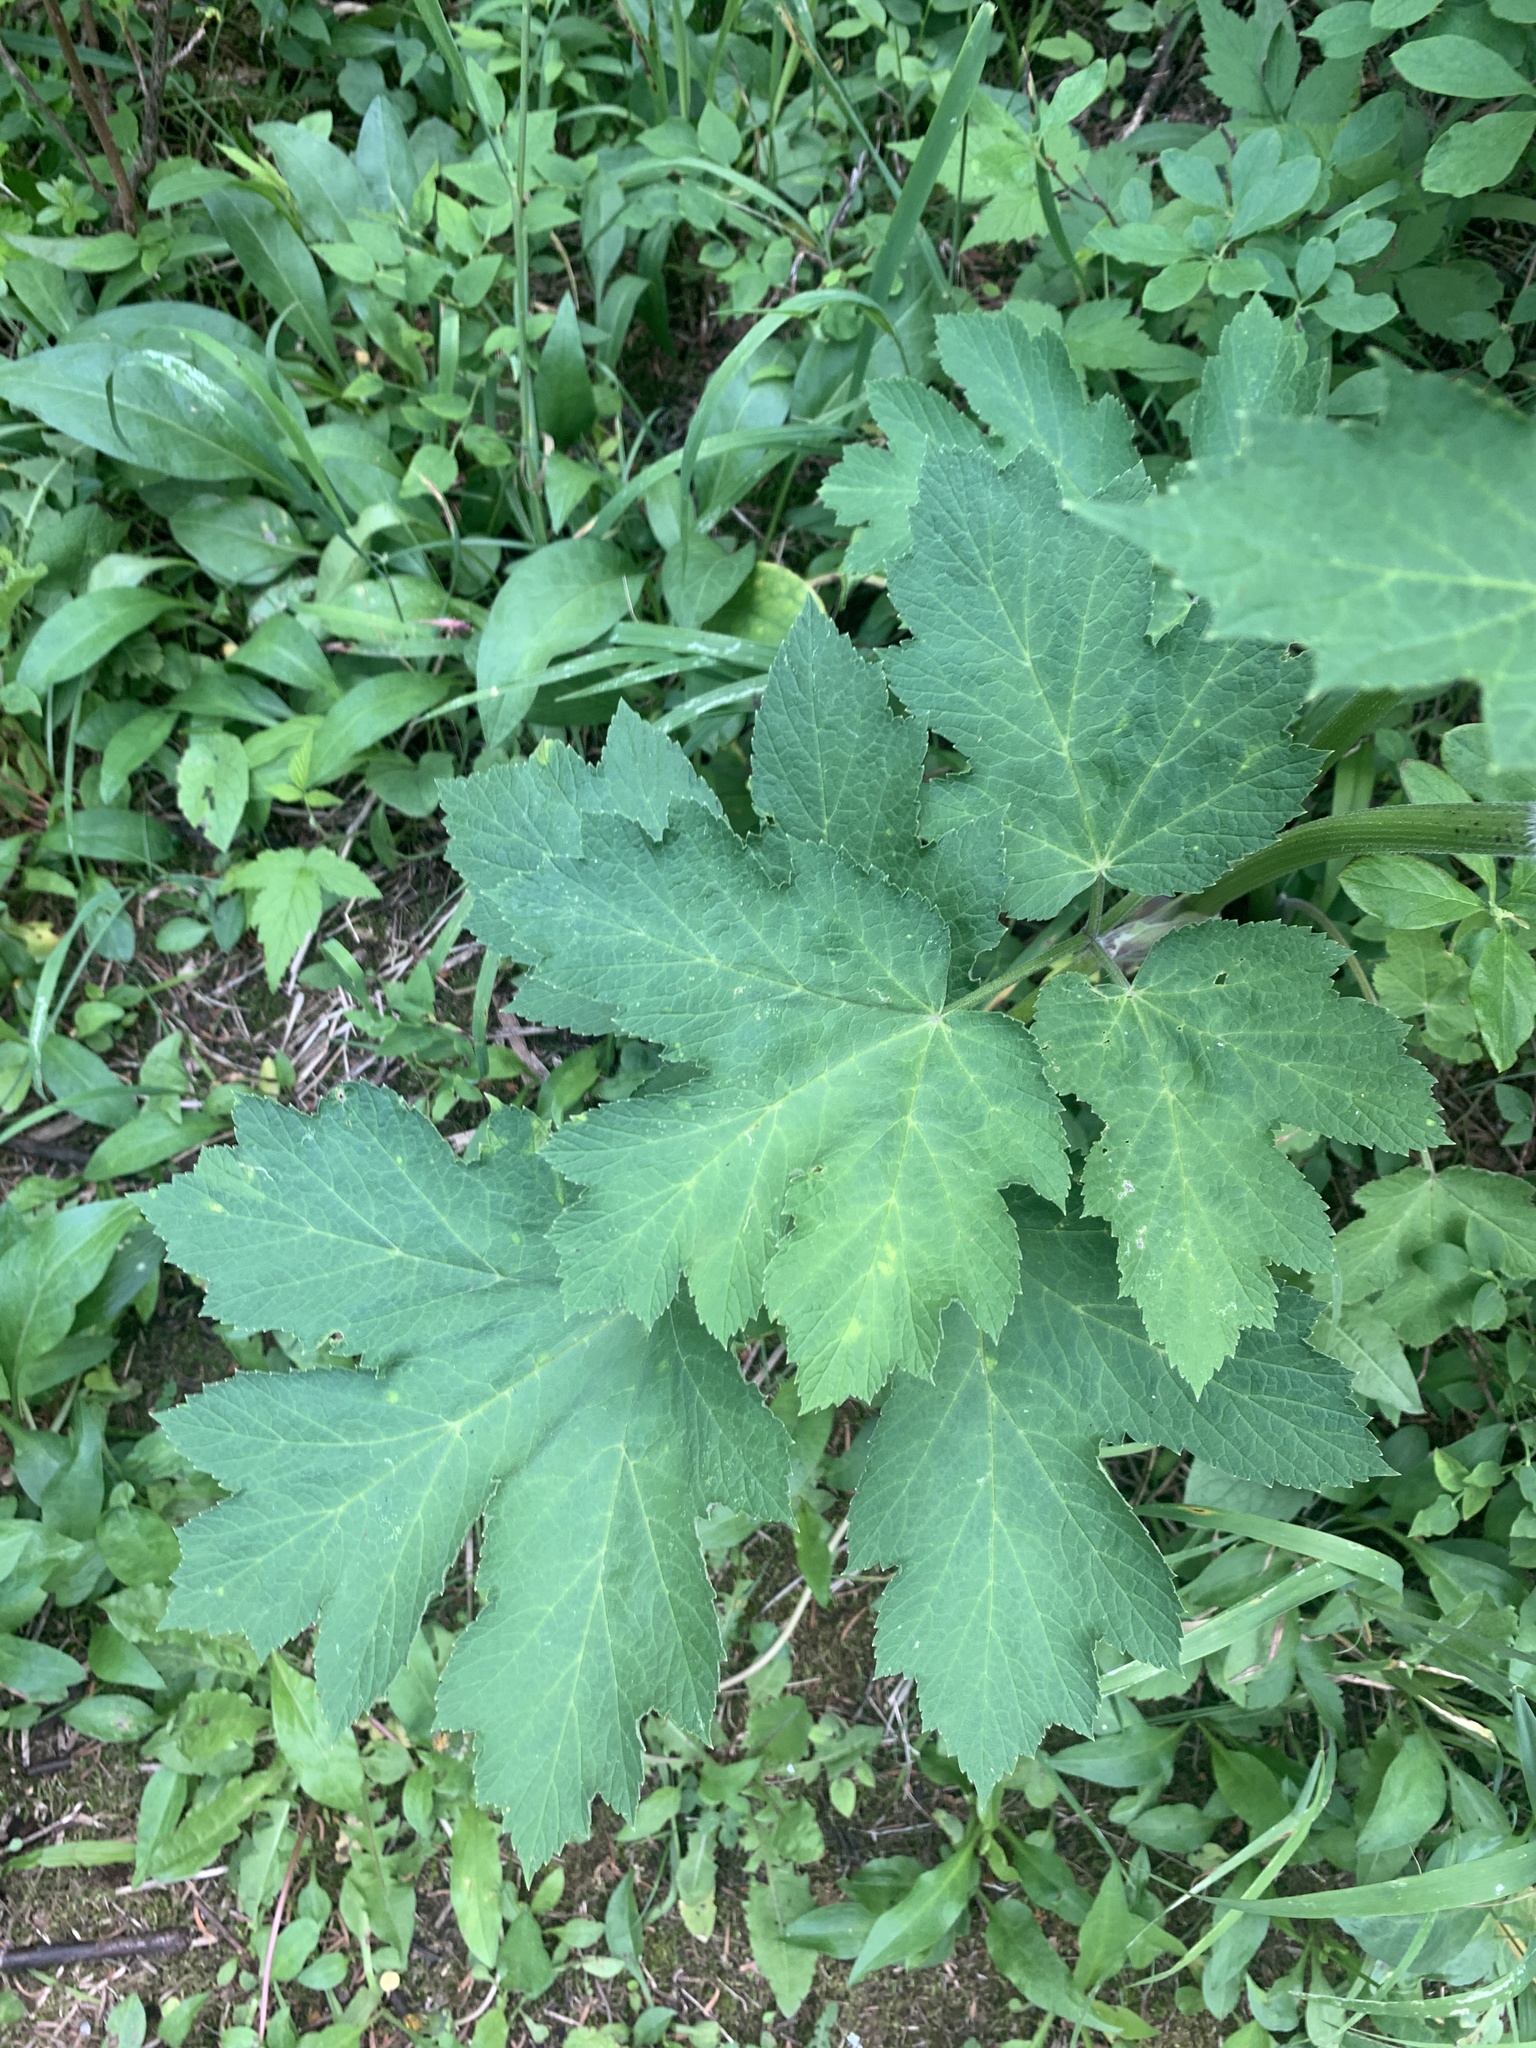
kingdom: Plantae
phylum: Tracheophyta
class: Magnoliopsida
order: Apiales
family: Apiaceae
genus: Heracleum
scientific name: Heracleum maximum
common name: American cow parsnip
